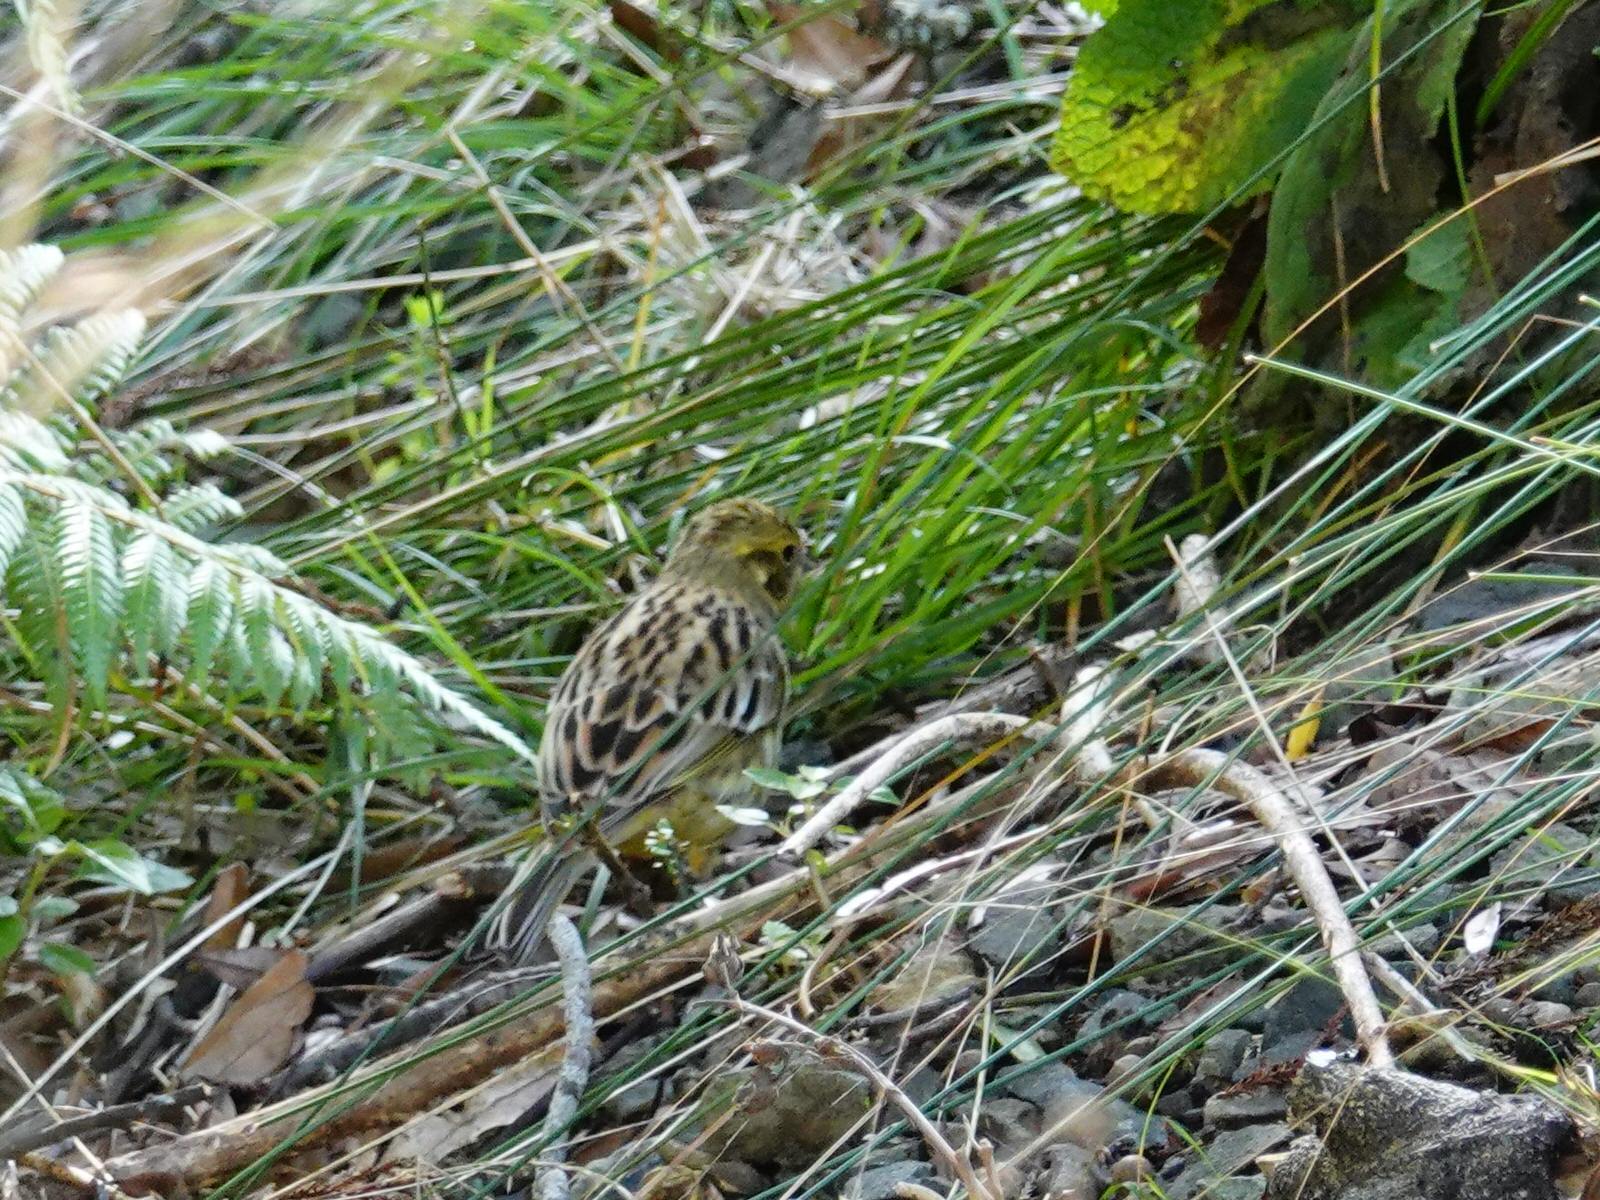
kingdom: Animalia
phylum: Chordata
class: Aves
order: Passeriformes
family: Emberizidae
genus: Emberiza
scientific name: Emberiza citrinella
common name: Yellowhammer
